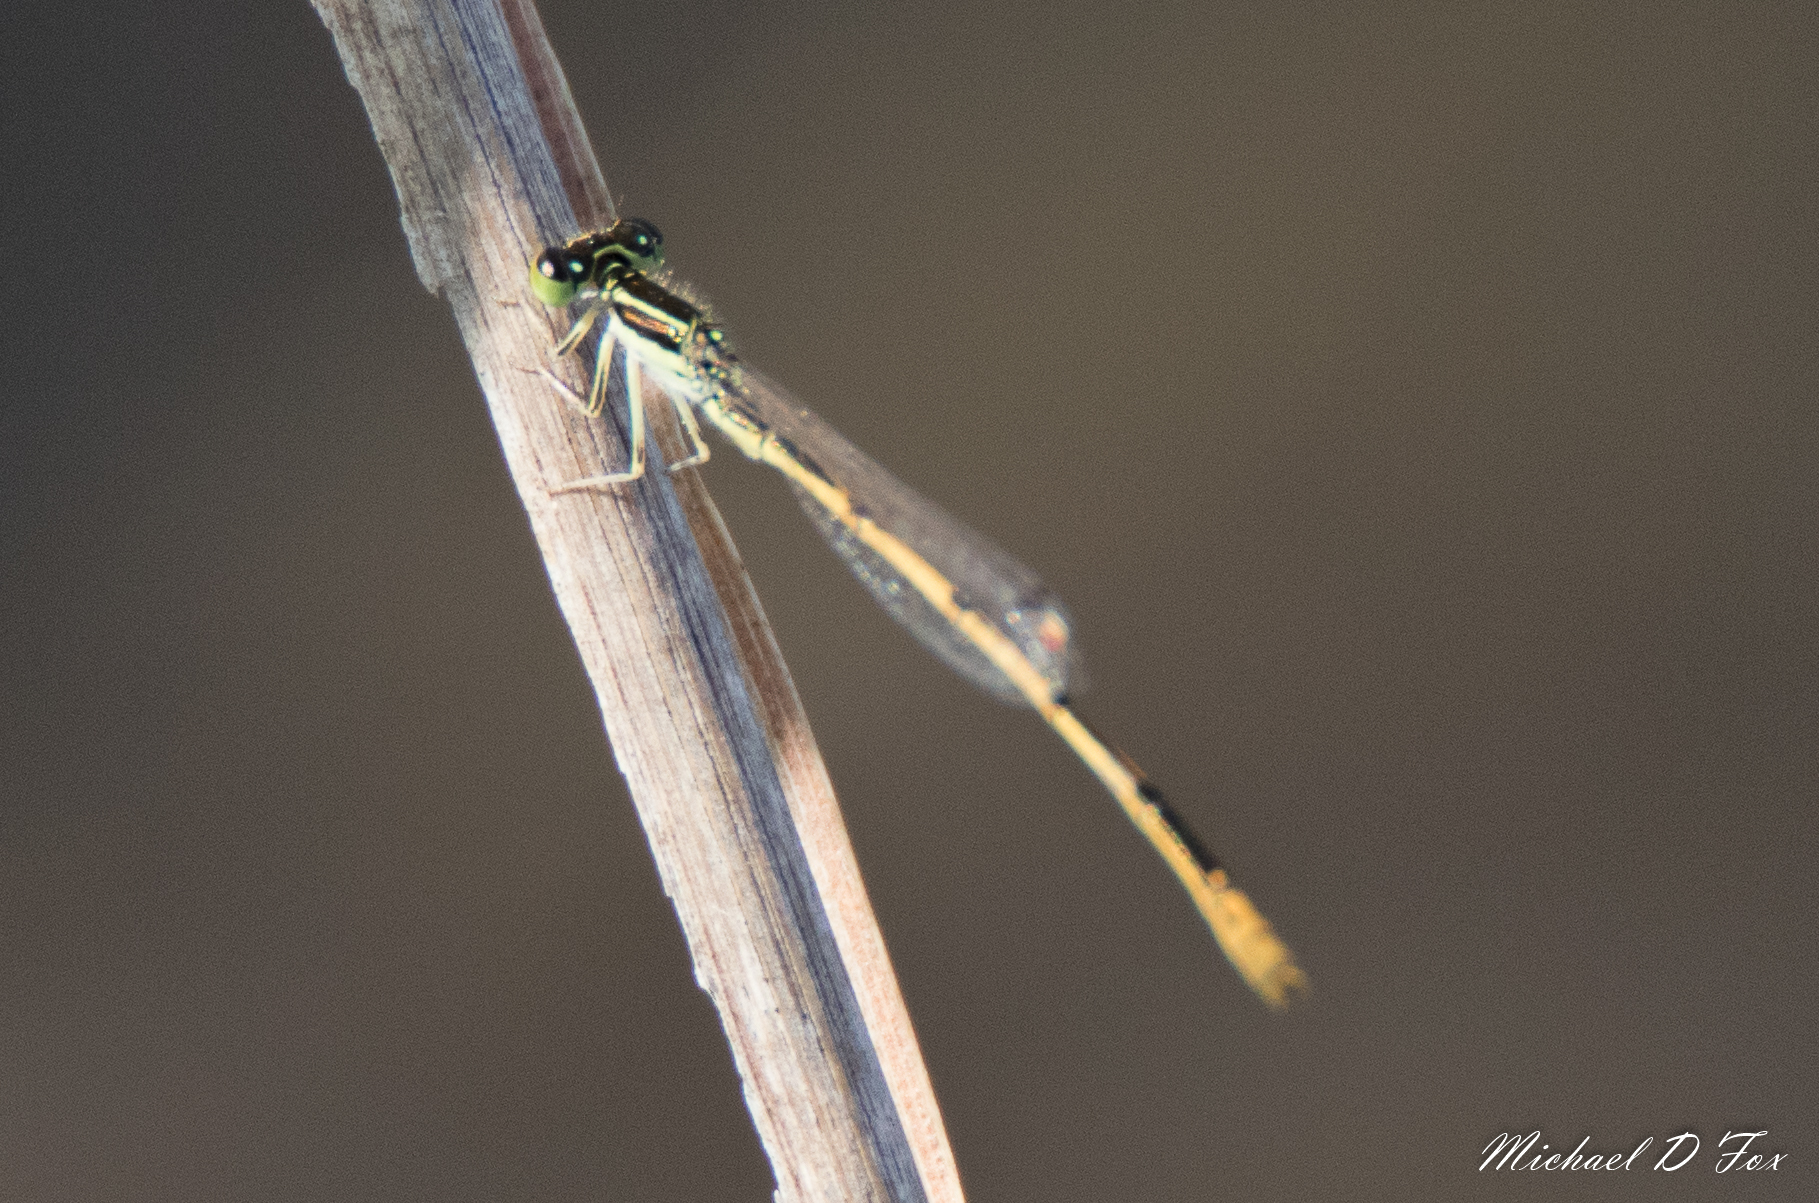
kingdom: Animalia
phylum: Arthropoda
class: Insecta
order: Odonata
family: Coenagrionidae
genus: Ischnura
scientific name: Ischnura hastata
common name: Citrine forktail
